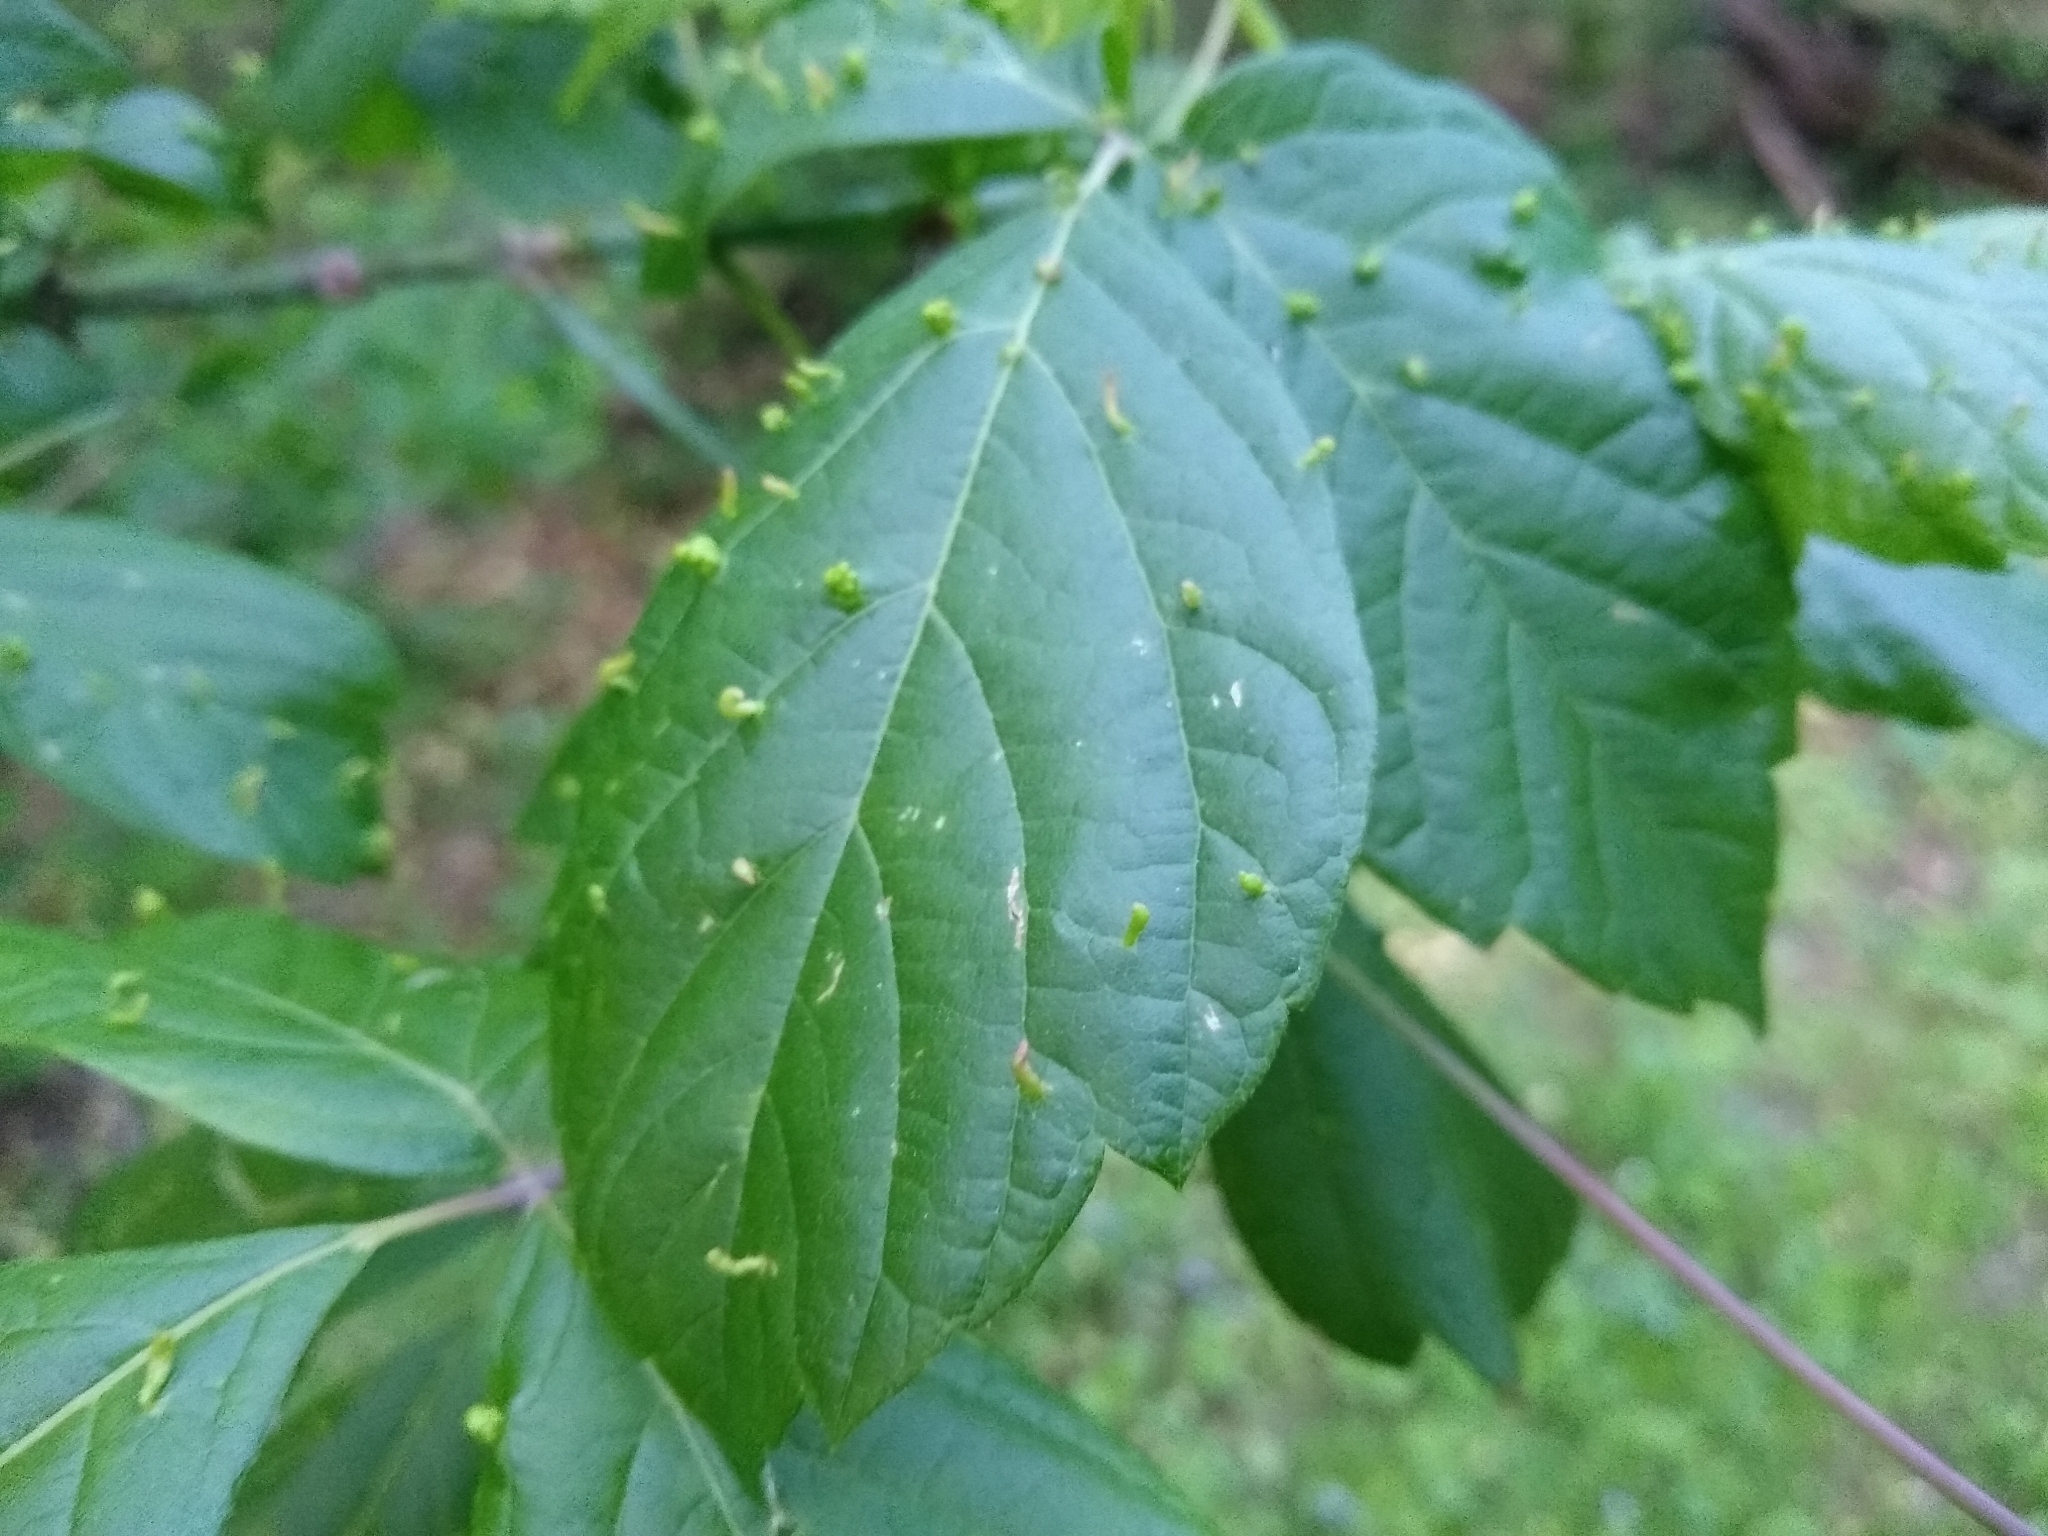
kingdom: Animalia
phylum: Arthropoda
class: Arachnida
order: Trombidiformes
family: Eriophyidae
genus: Aceria
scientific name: Aceria
